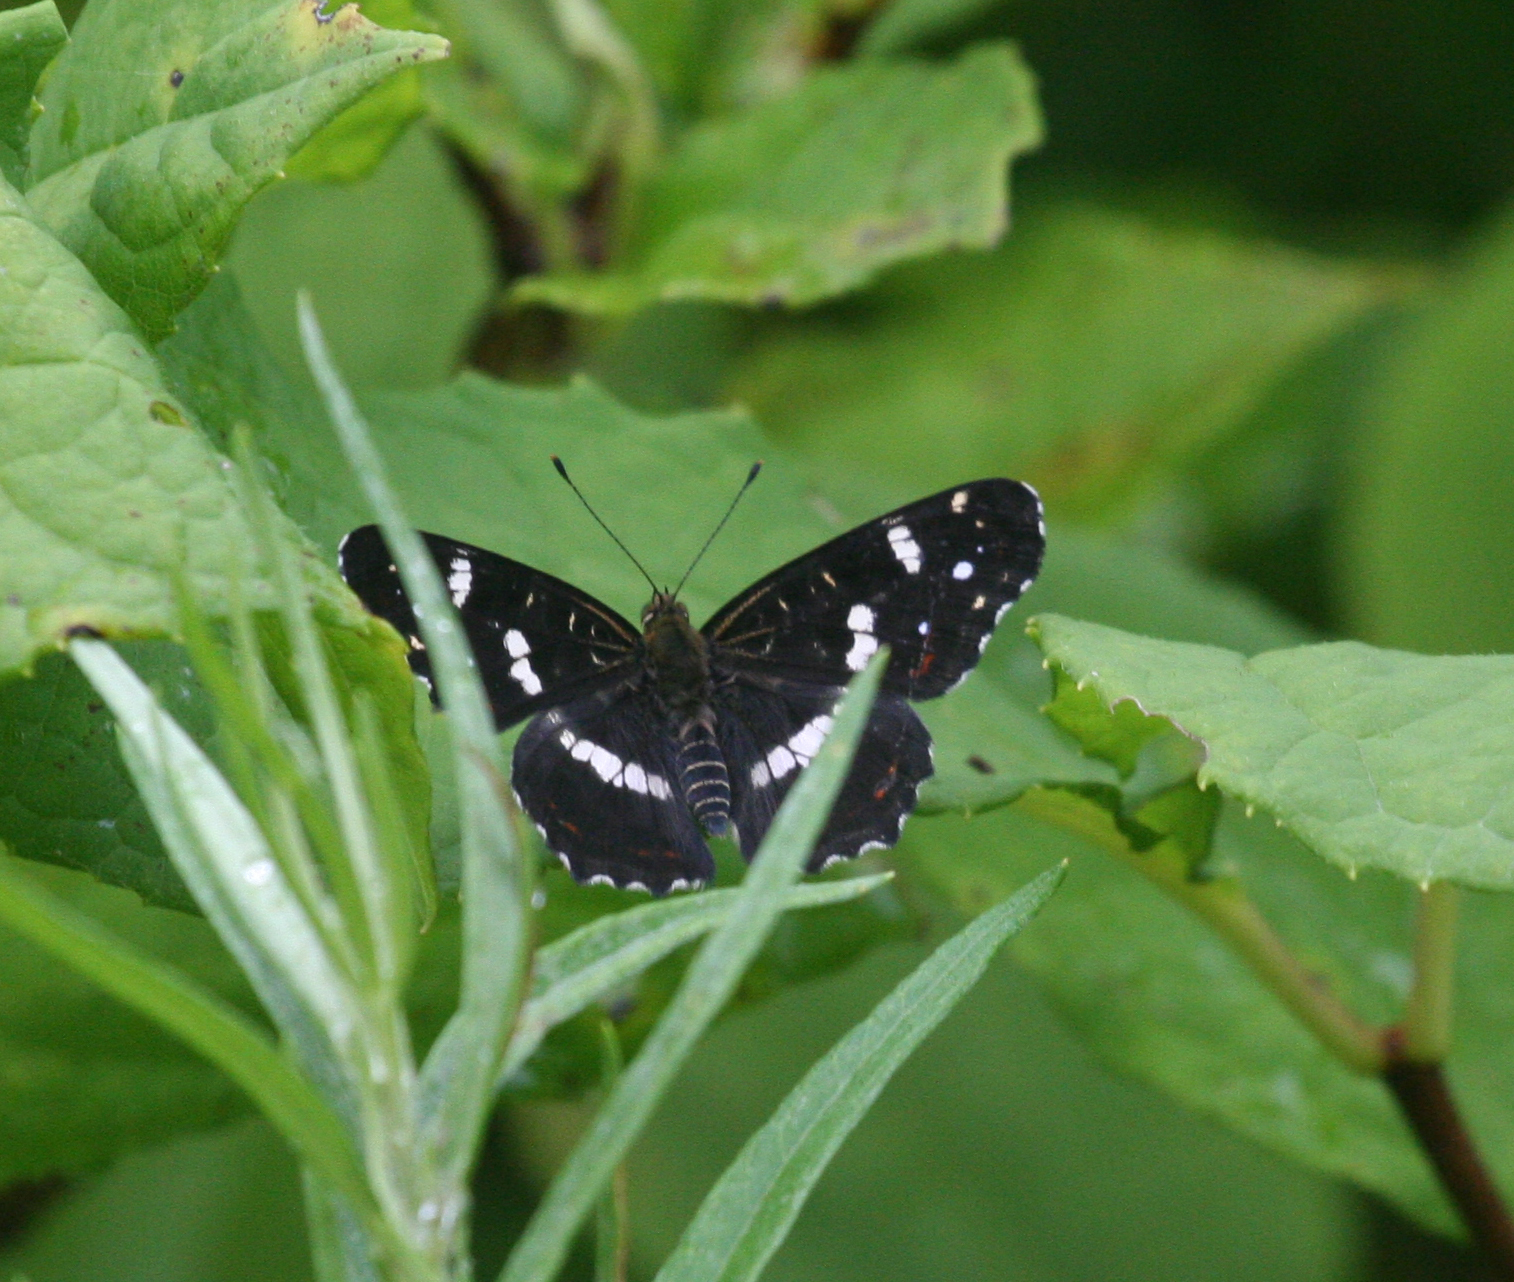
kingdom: Animalia
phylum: Arthropoda
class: Insecta
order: Lepidoptera
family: Nymphalidae
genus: Araschnia
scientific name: Araschnia levana
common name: Map butterfly
